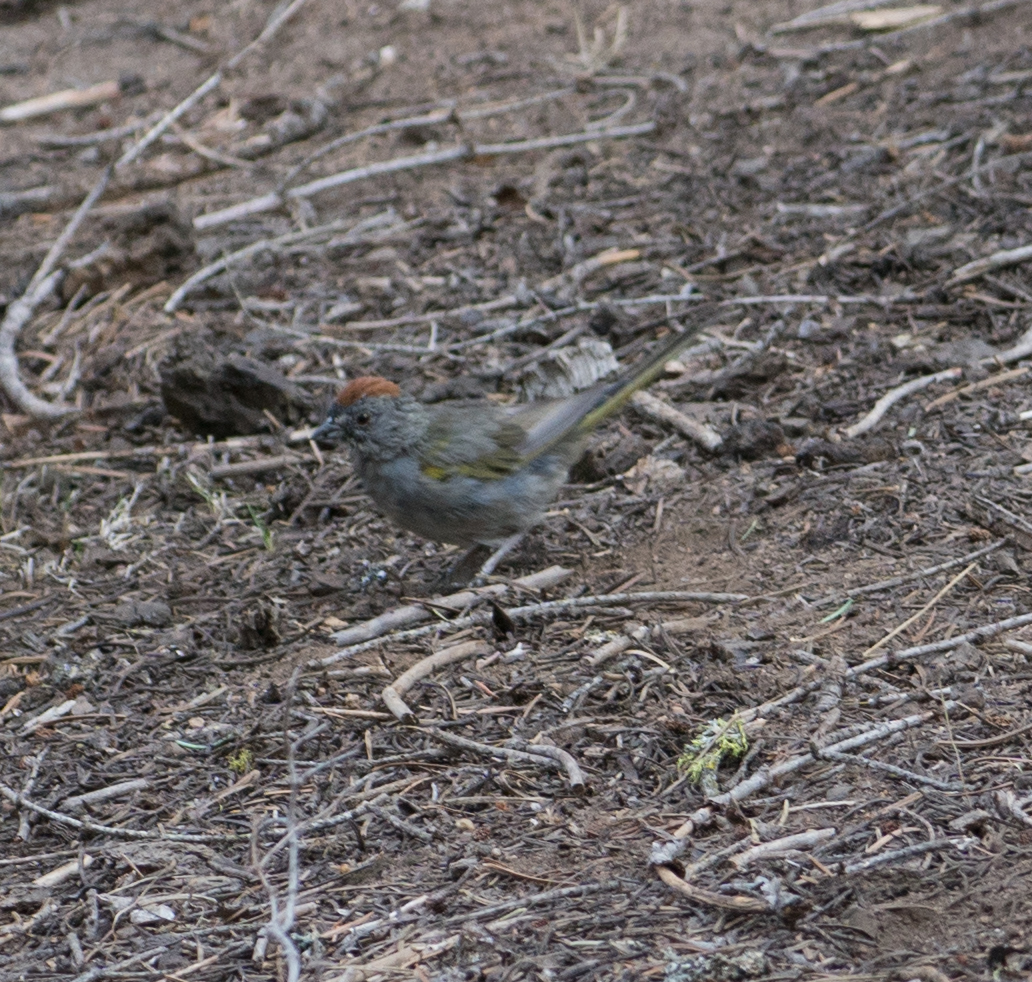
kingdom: Animalia
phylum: Chordata
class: Aves
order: Passeriformes
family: Passerellidae
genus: Pipilo
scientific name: Pipilo chlorurus
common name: Green-tailed towhee
